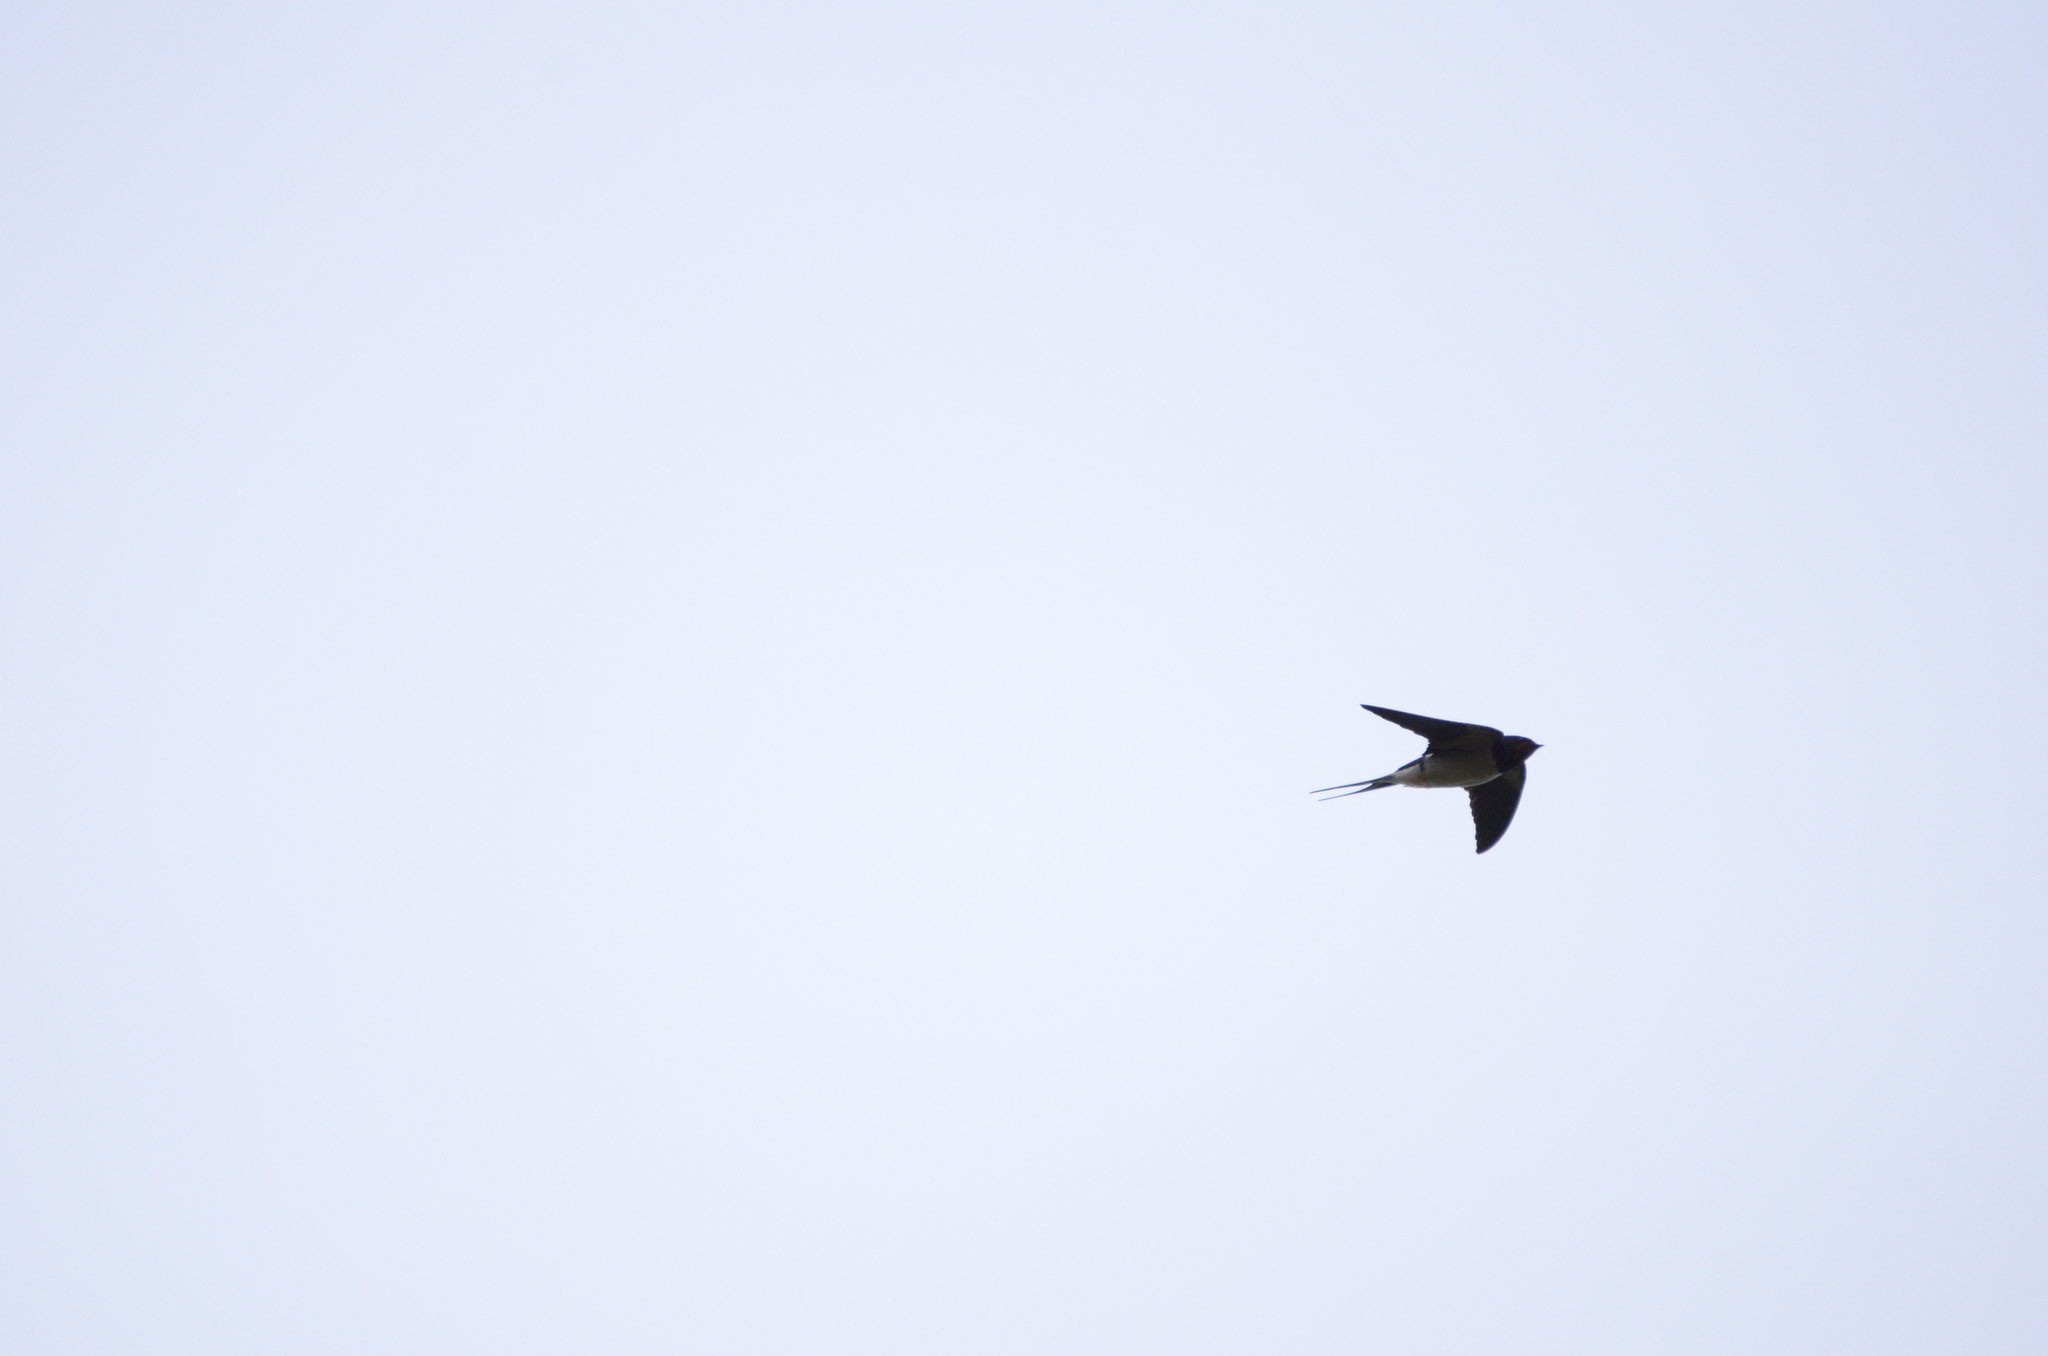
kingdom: Animalia
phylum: Chordata
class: Aves
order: Passeriformes
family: Hirundinidae
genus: Hirundo
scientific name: Hirundo rustica
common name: Barn swallow
